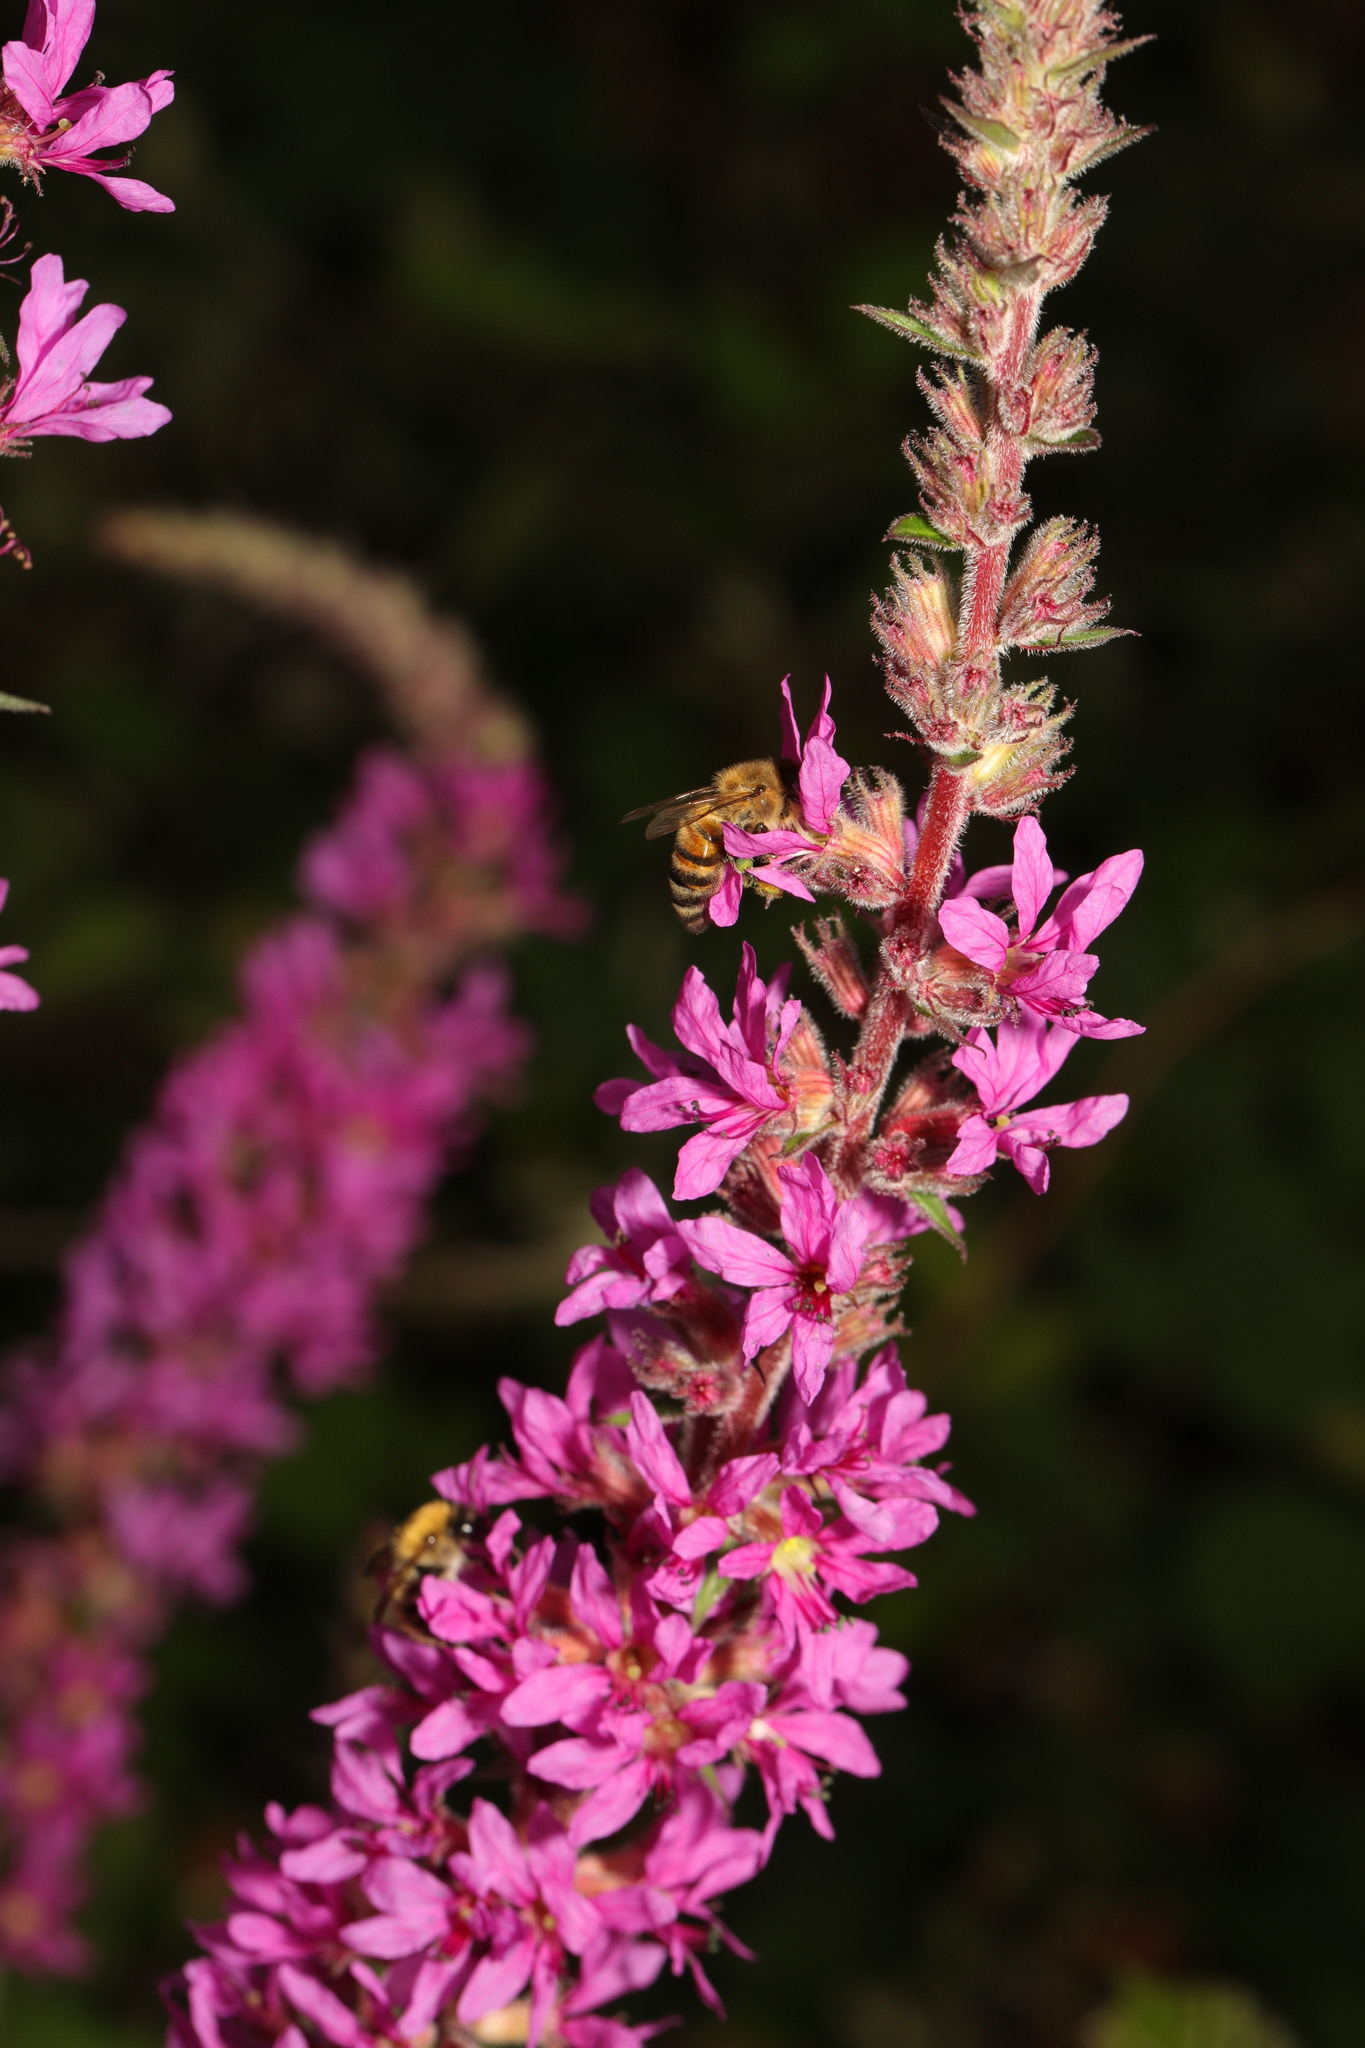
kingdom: Animalia
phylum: Arthropoda
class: Insecta
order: Hymenoptera
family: Apidae
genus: Apis
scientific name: Apis mellifera
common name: Honey bee
